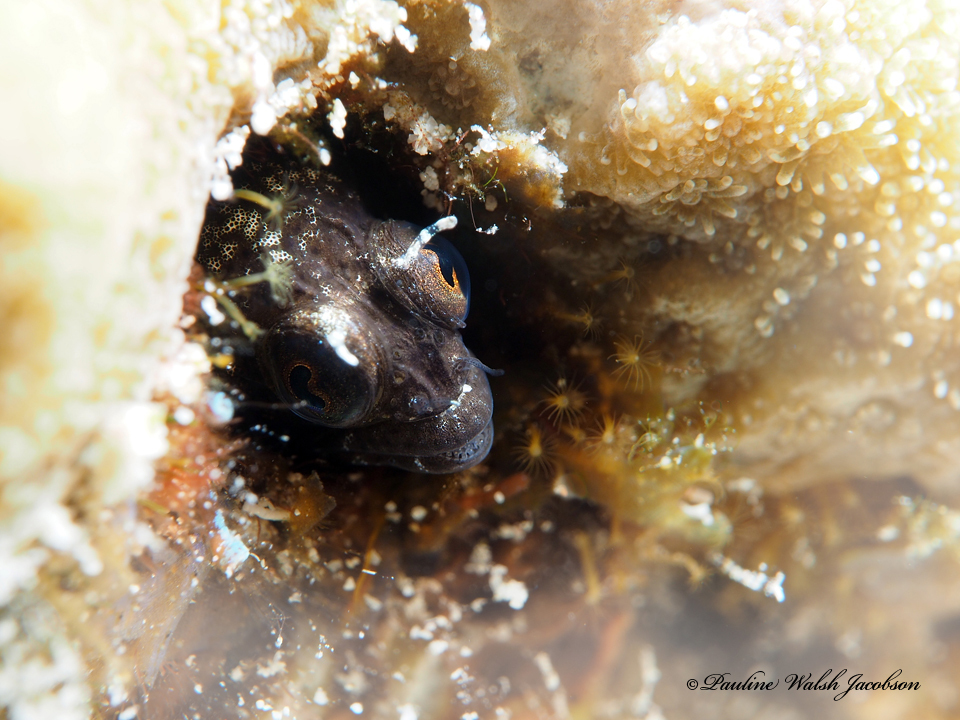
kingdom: Animalia
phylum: Chordata
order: Perciformes
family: Chaenopsidae
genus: Emblemaria
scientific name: Emblemaria pandionis
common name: Sailfin blenny
